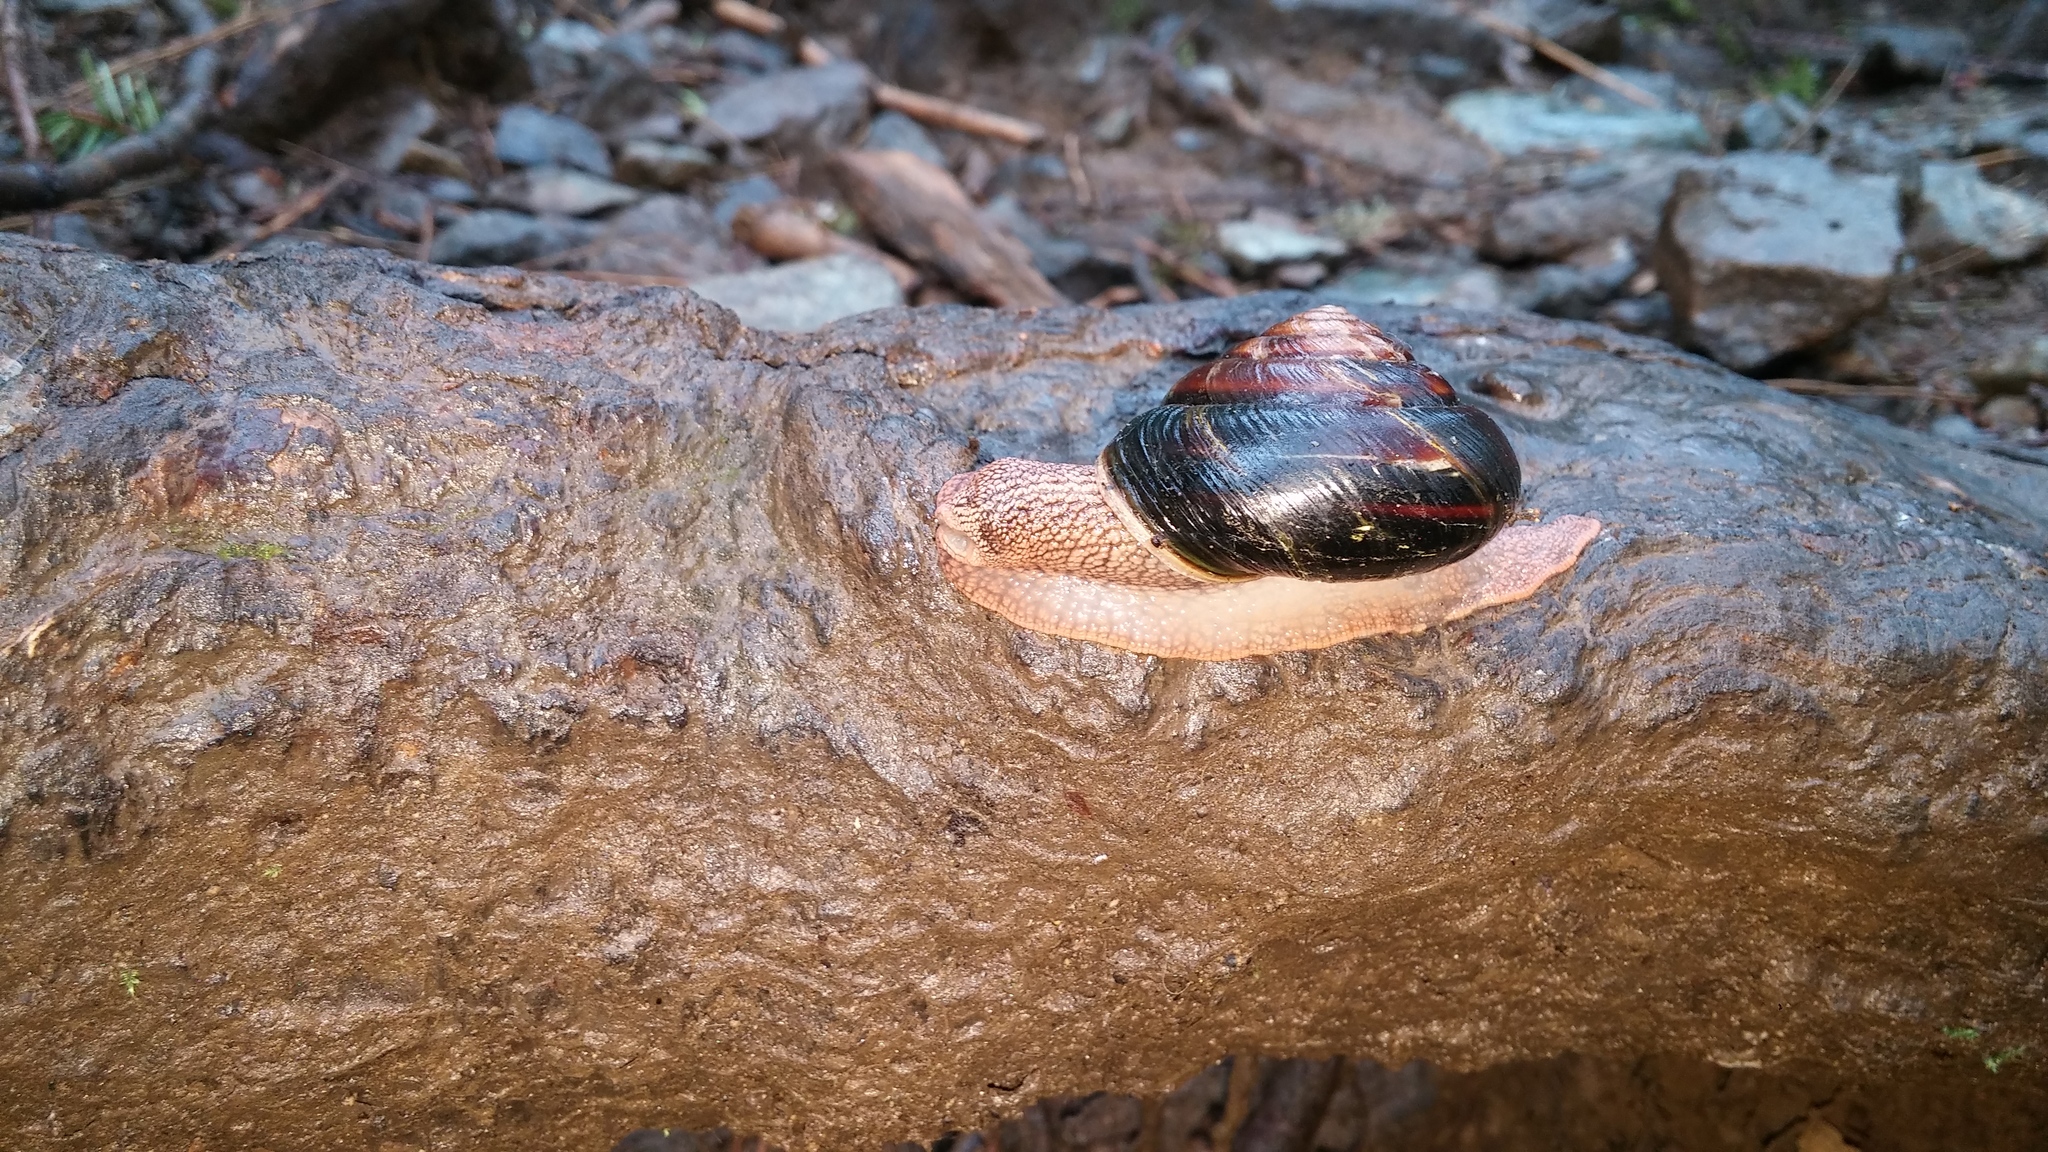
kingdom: Animalia
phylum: Mollusca
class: Gastropoda
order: Stylommatophora
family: Xanthonychidae
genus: Monadenia
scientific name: Monadenia fidelis
